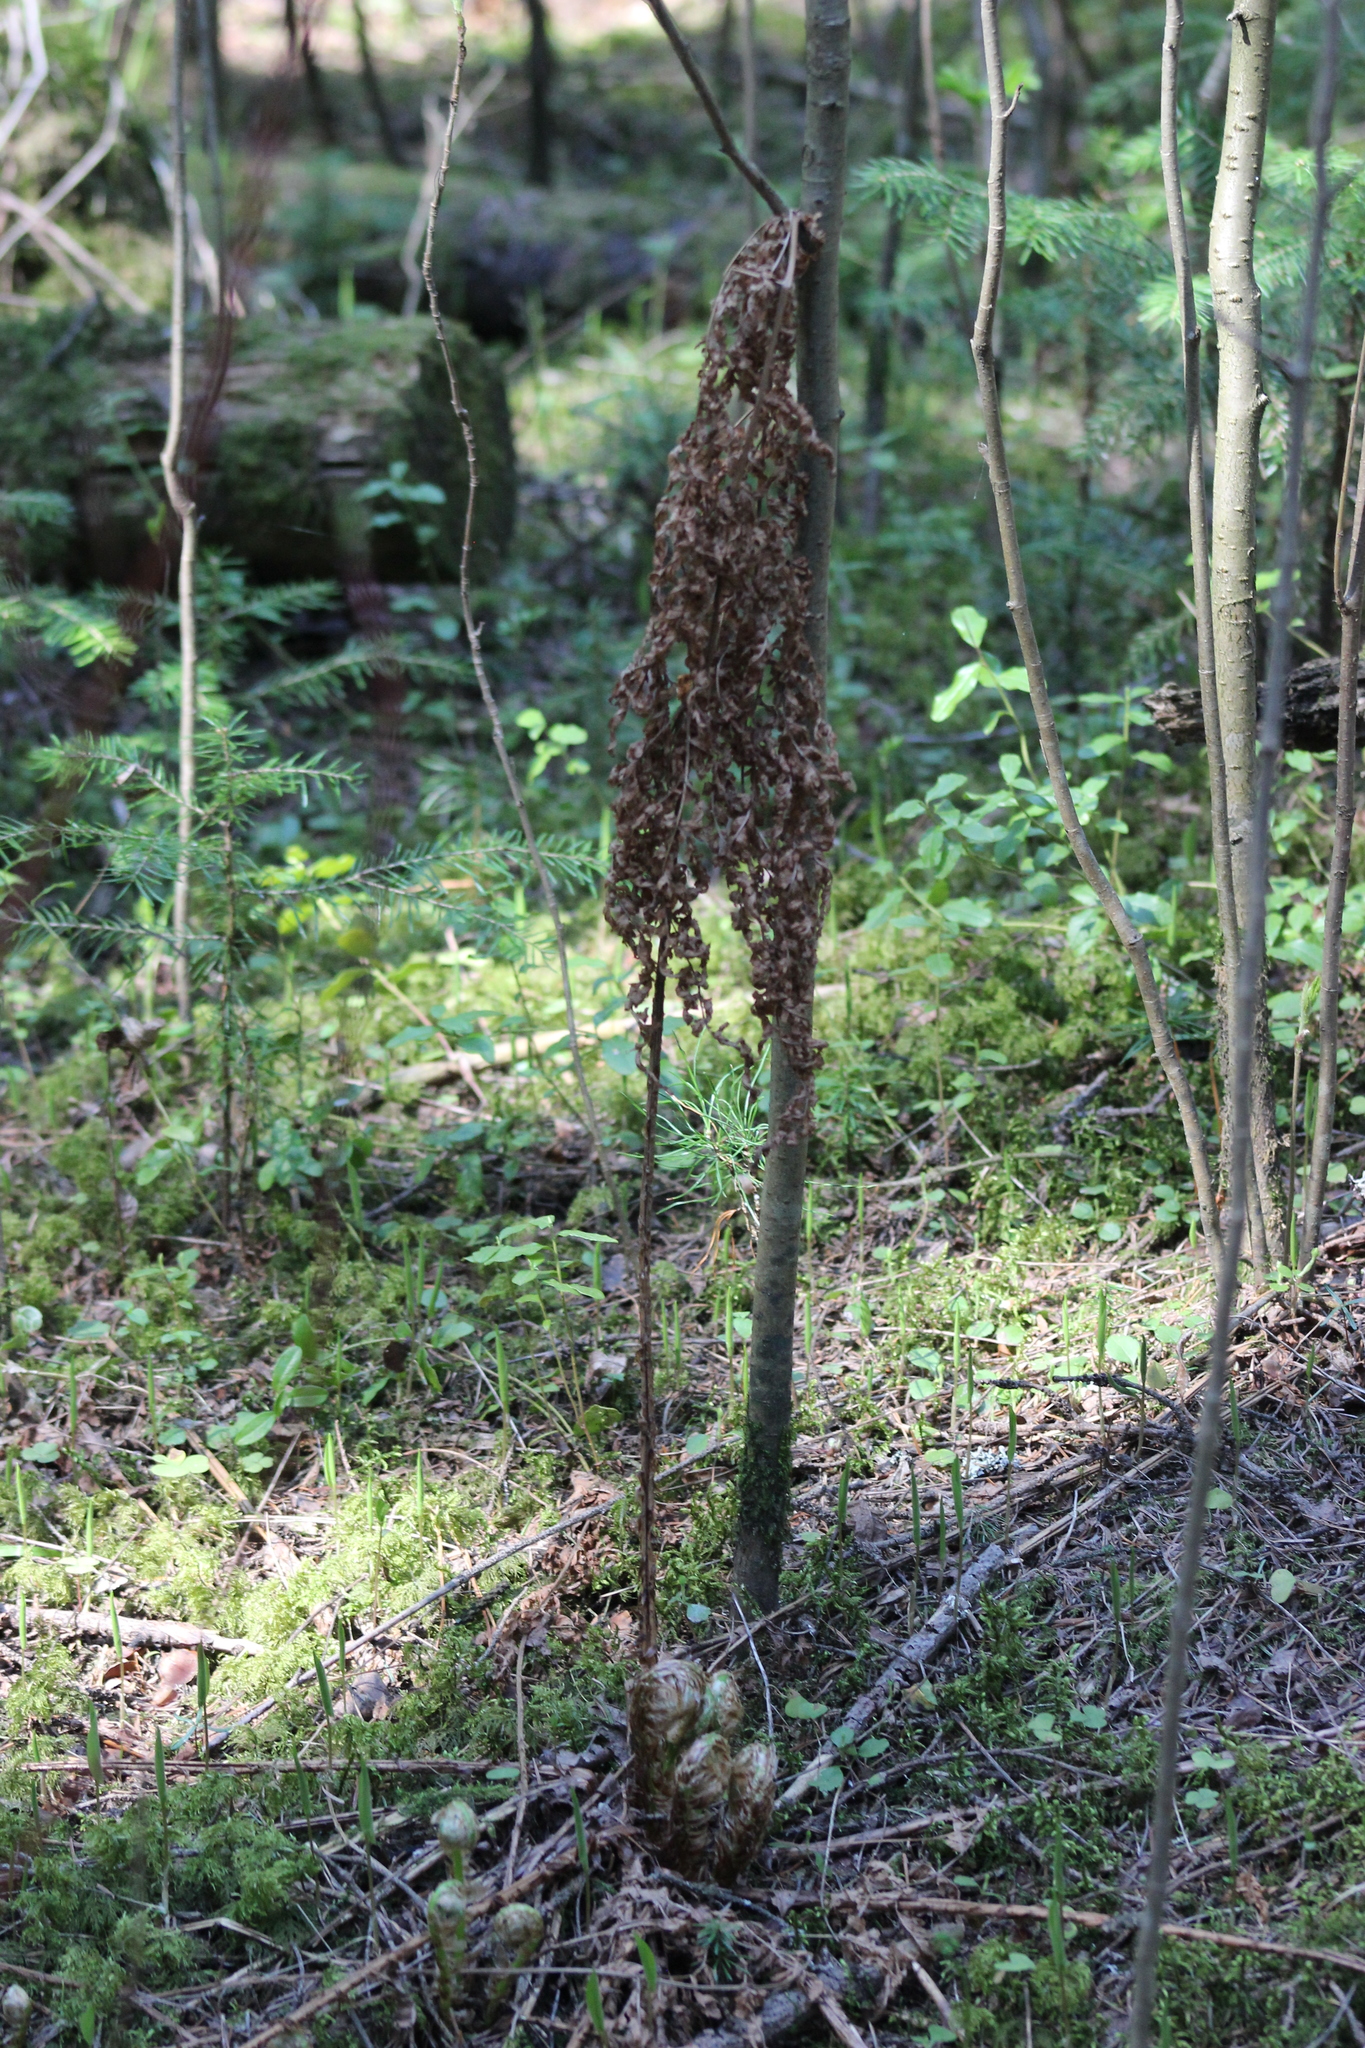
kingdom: Plantae
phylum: Tracheophyta
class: Polypodiopsida
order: Polypodiales
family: Dryopteridaceae
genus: Dryopteris
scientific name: Dryopteris expansa
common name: Northern buckler fern
